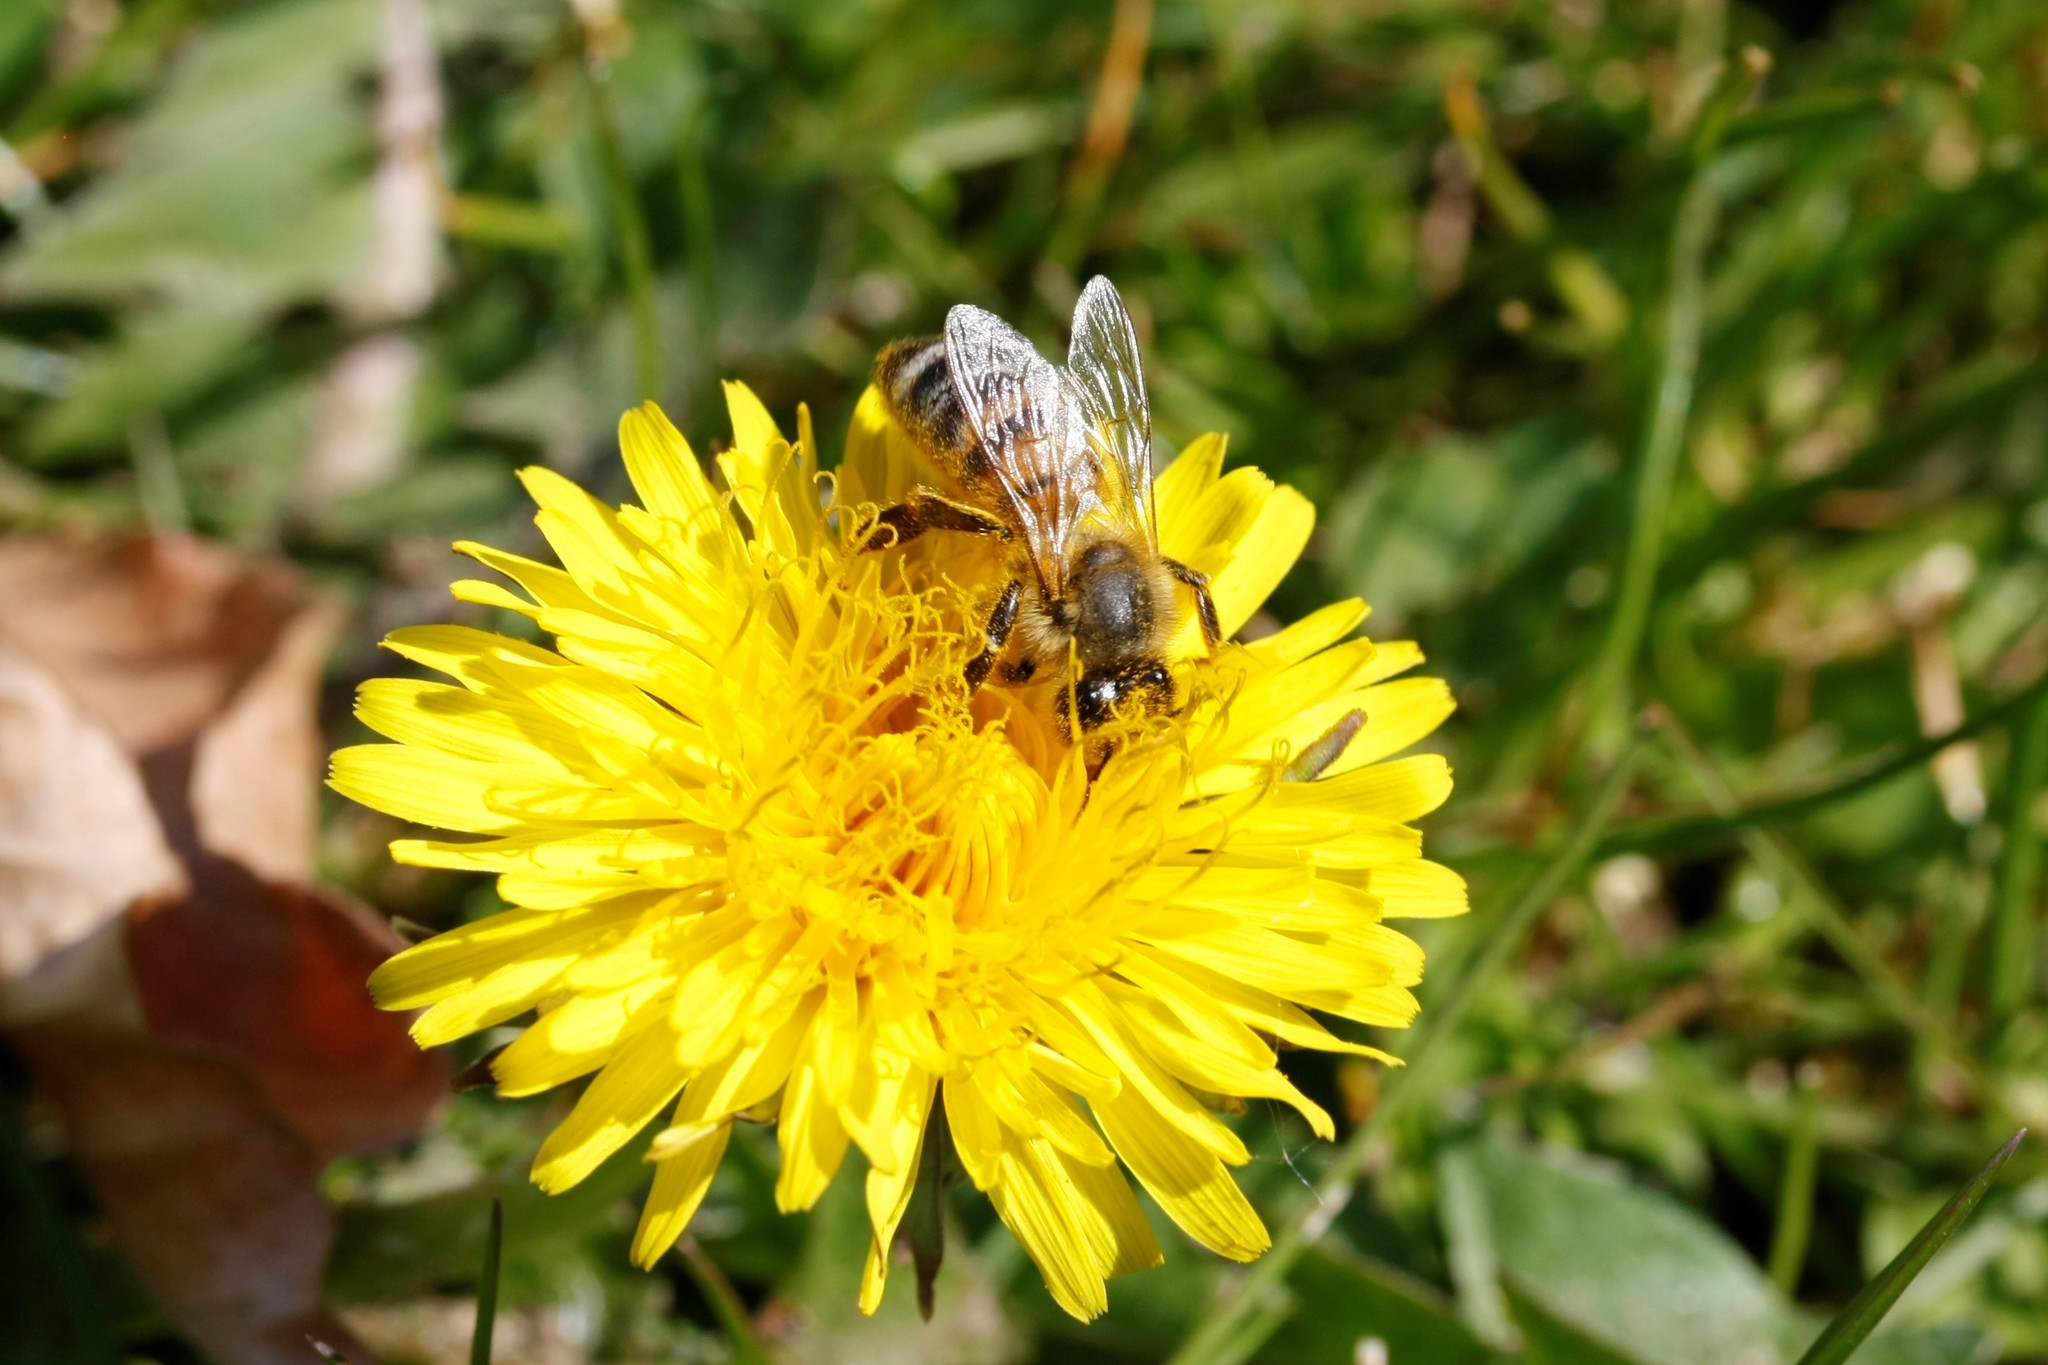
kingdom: Animalia
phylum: Arthropoda
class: Insecta
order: Hymenoptera
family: Apidae
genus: Apis
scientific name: Apis mellifera
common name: Honey bee
